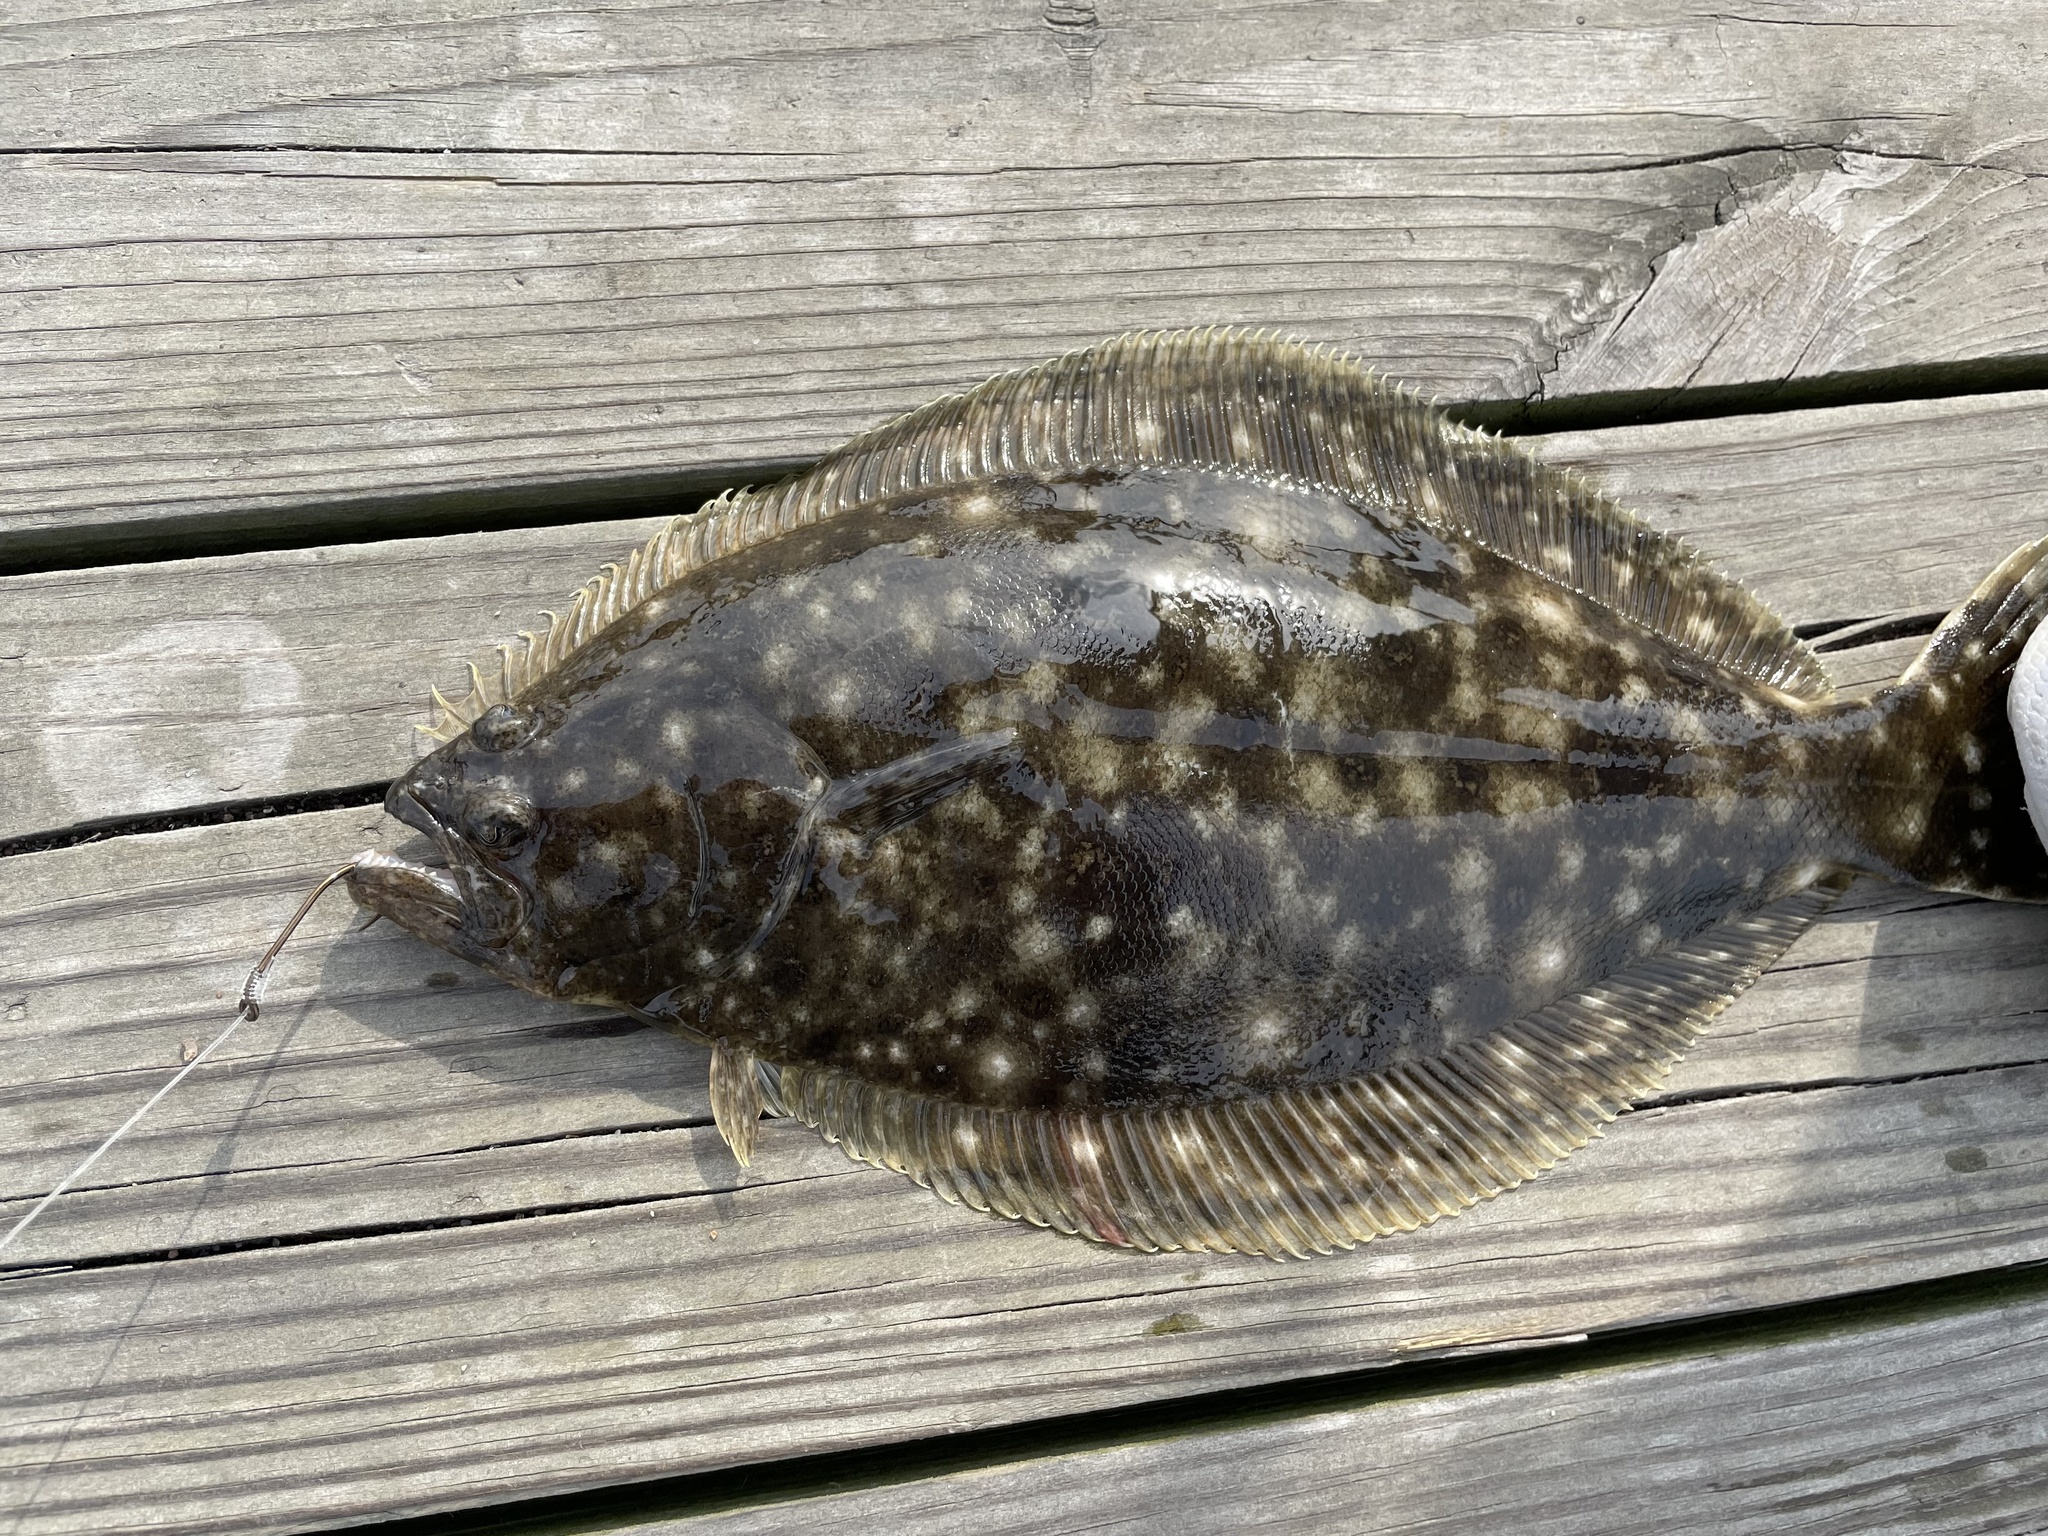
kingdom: Animalia
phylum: Chordata
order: Pleuronectiformes
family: Paralichthyidae
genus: Paralichthys
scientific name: Paralichthys dentatus
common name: Summer flounder
